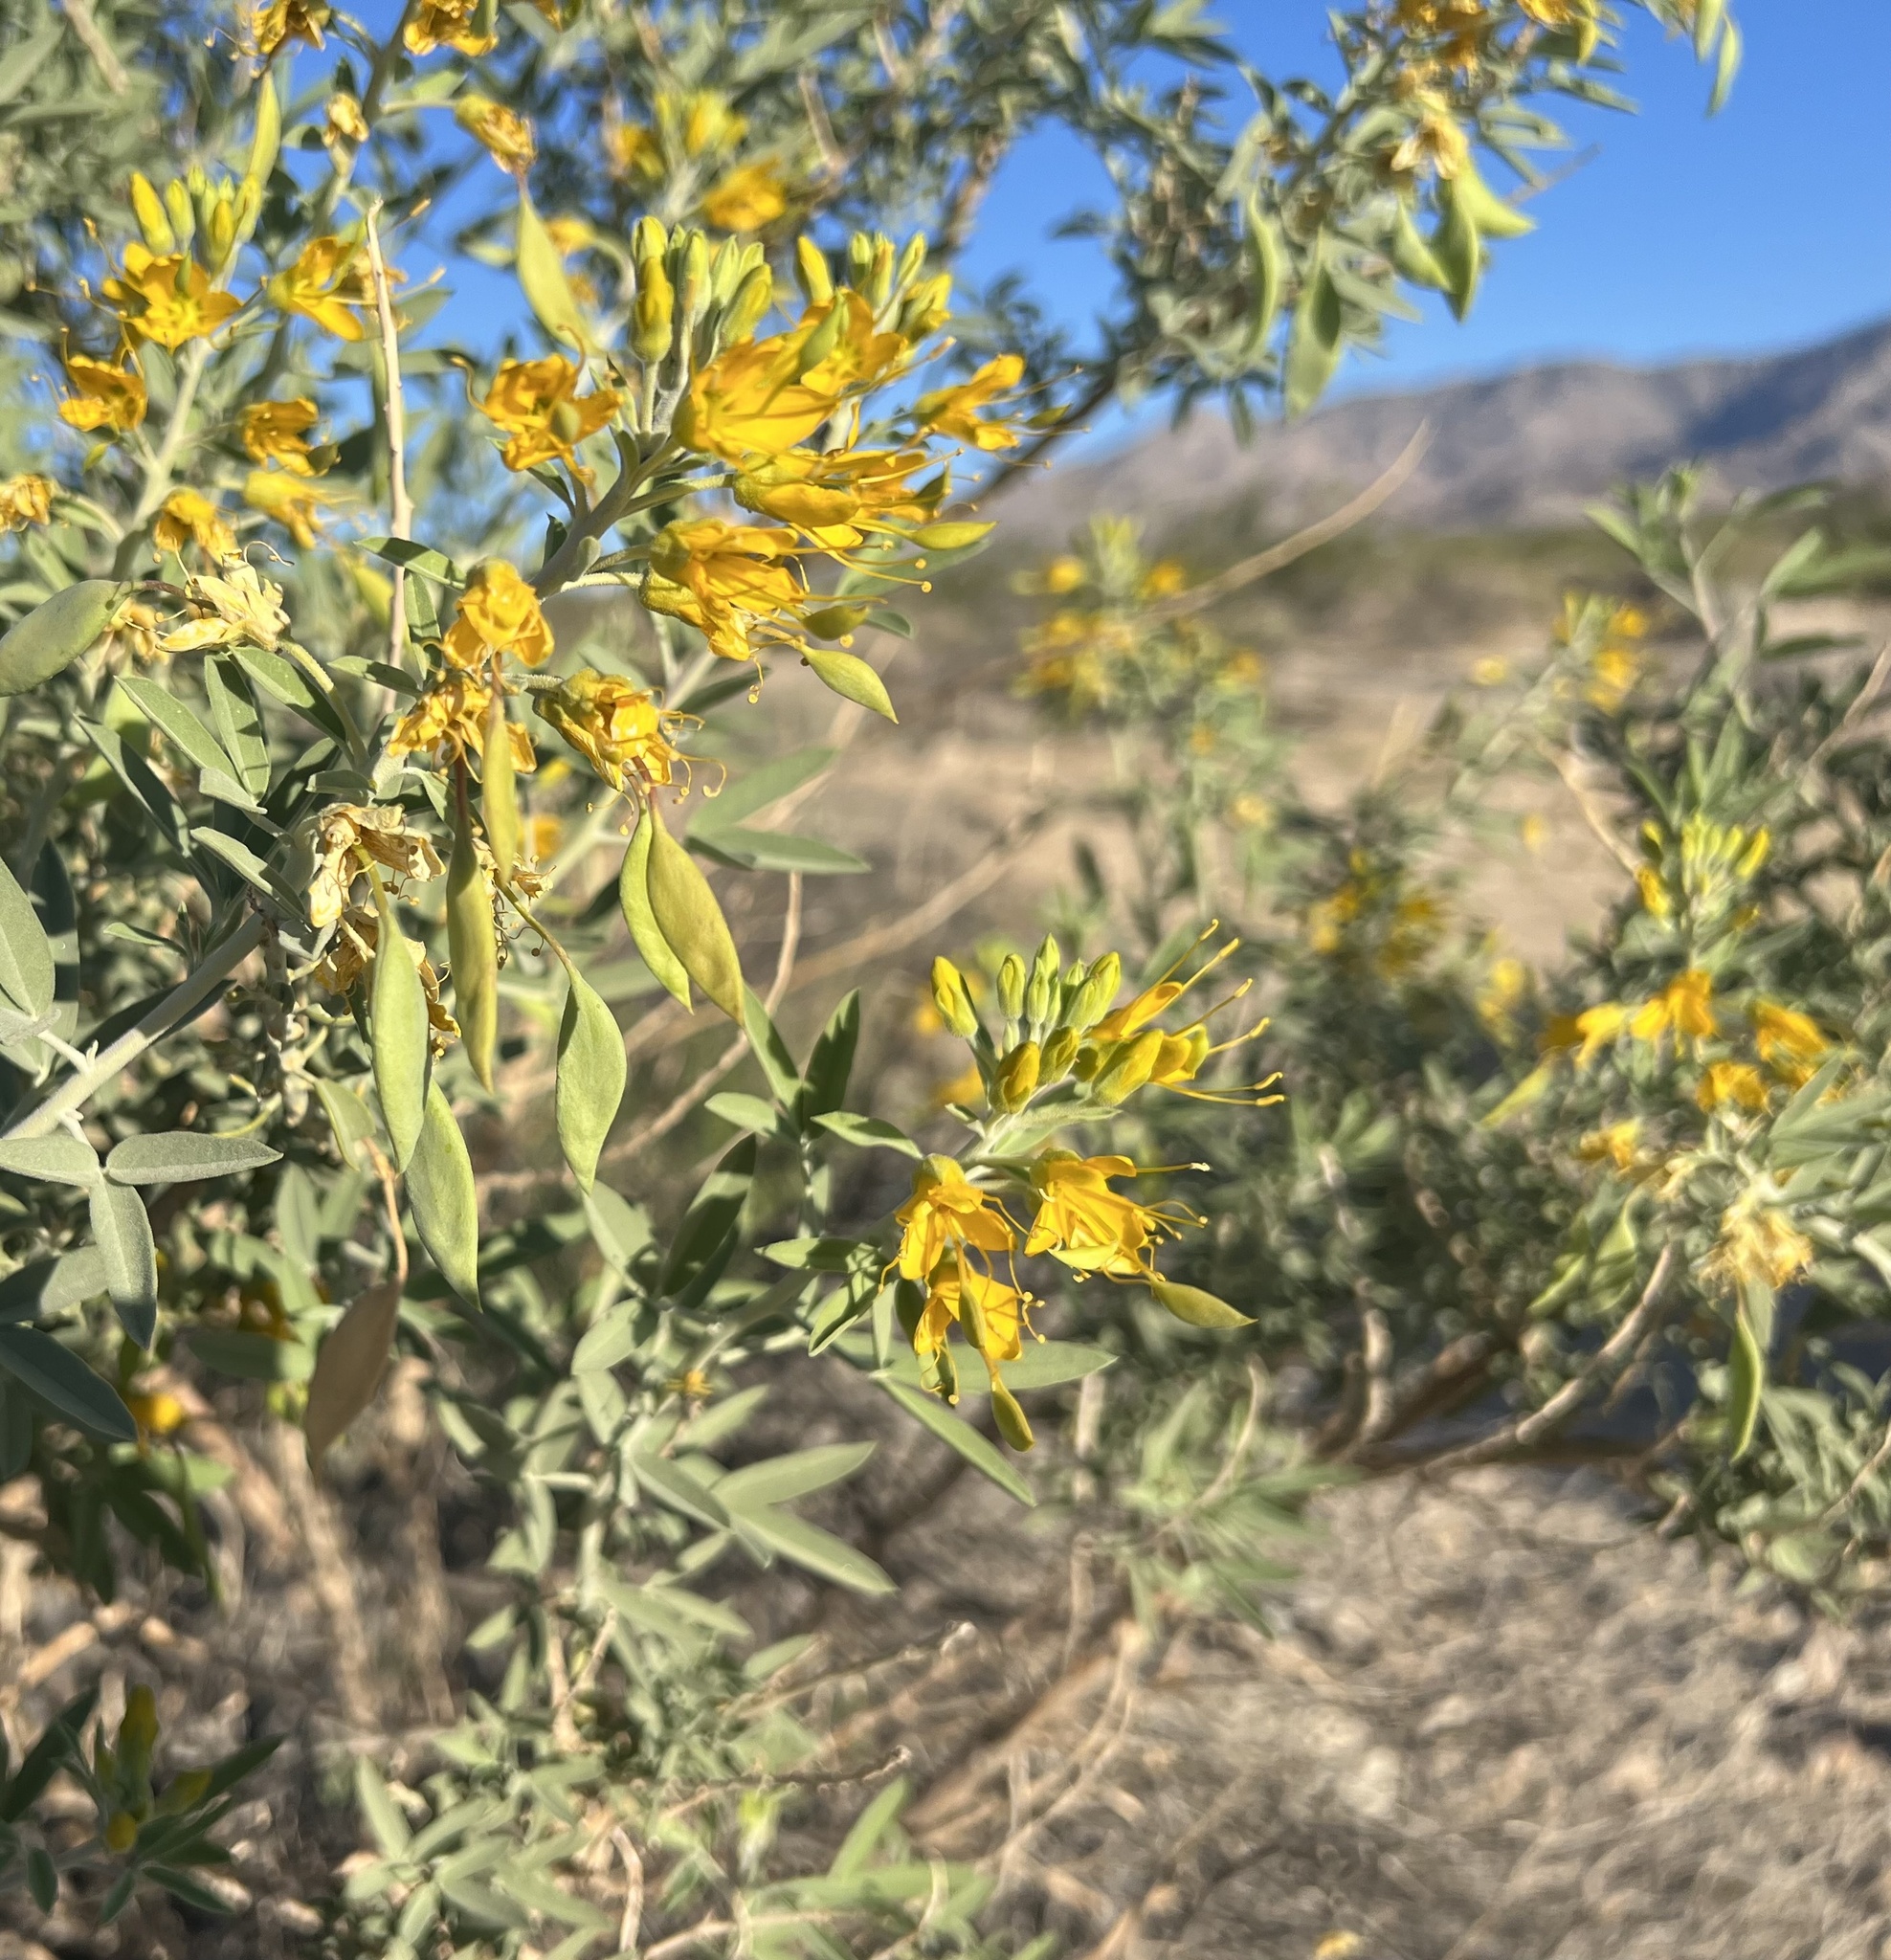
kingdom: Plantae
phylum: Tracheophyta
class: Magnoliopsida
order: Brassicales
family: Cleomaceae
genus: Cleomella
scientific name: Cleomella arborea
